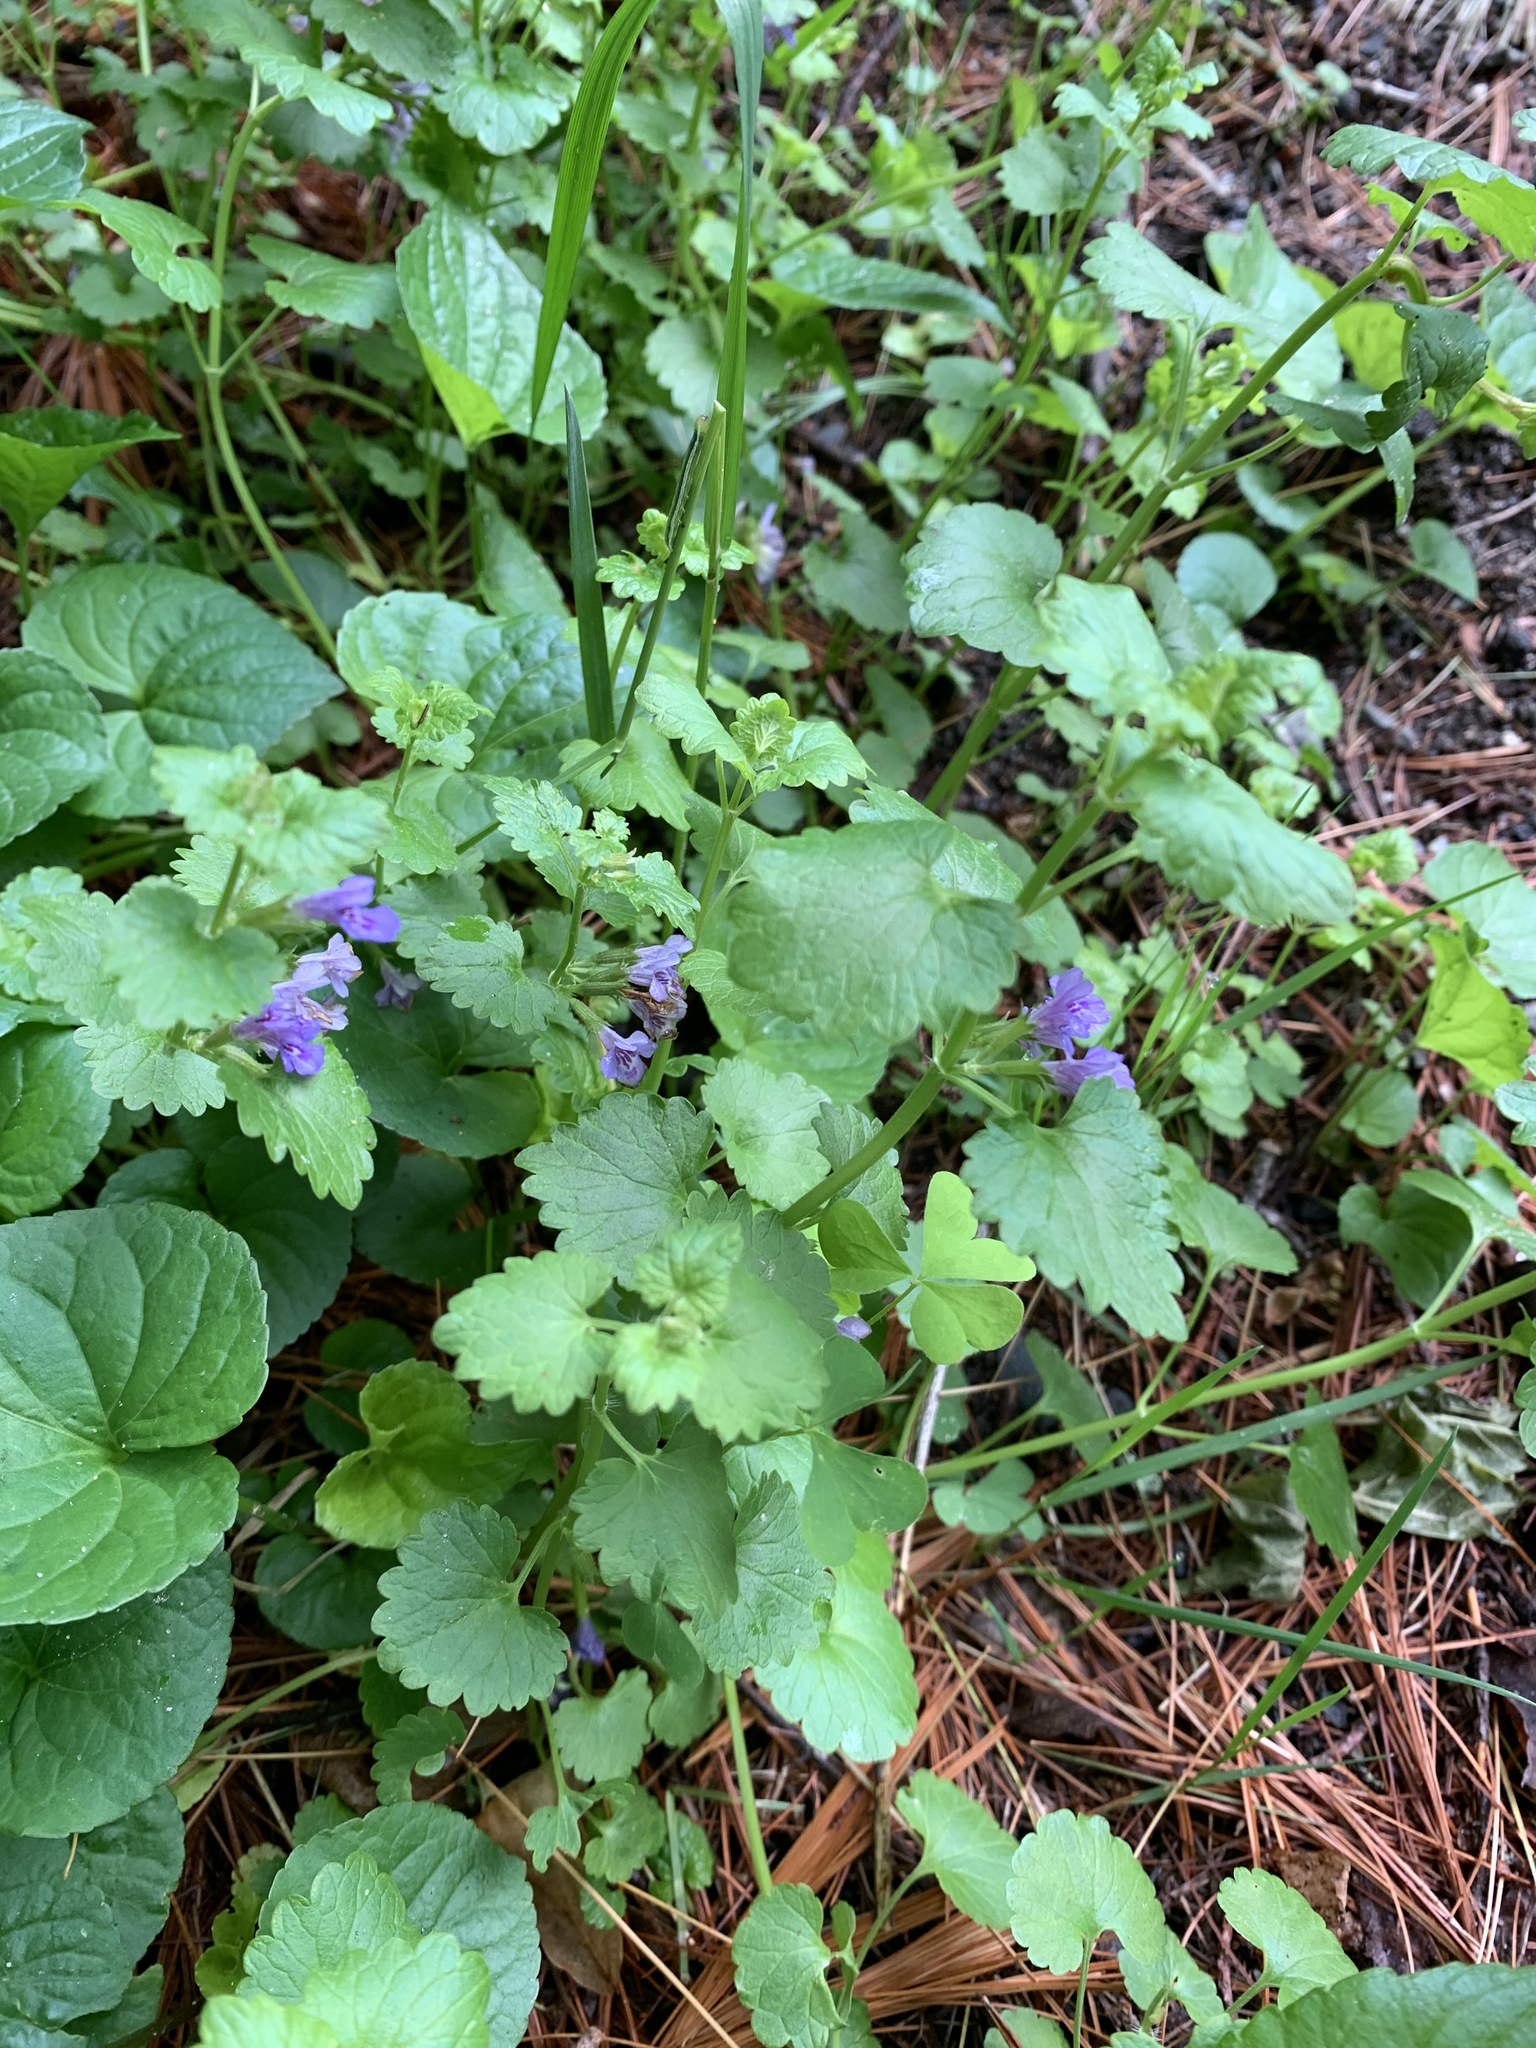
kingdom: Plantae
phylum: Tracheophyta
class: Magnoliopsida
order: Lamiales
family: Lamiaceae
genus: Glechoma
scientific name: Glechoma hederacea
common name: Ground ivy
